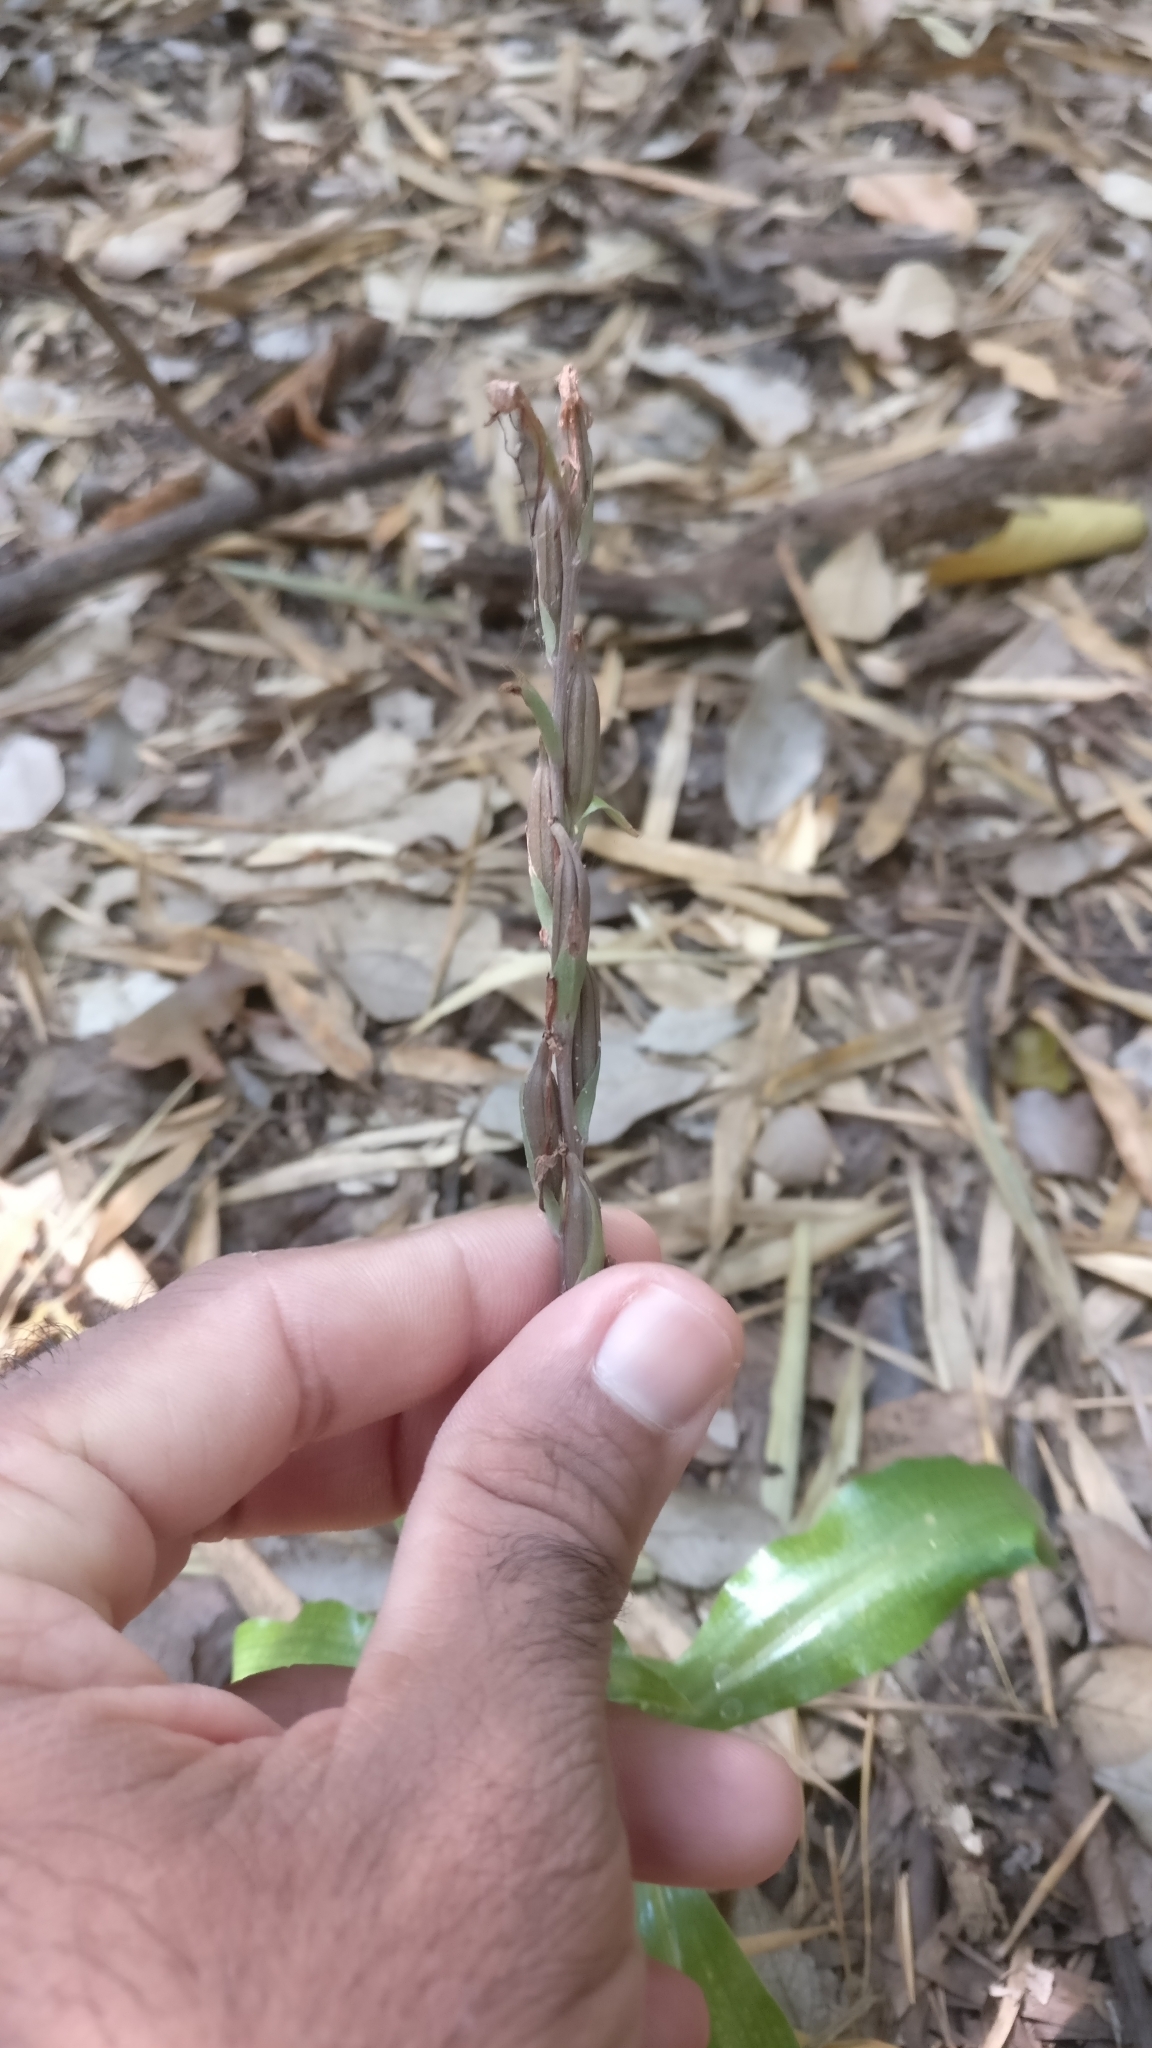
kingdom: Plantae
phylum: Tracheophyta
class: Liliopsida
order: Asparagales
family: Orchidaceae
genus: Habenaria
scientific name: Habenaria stenopetala
